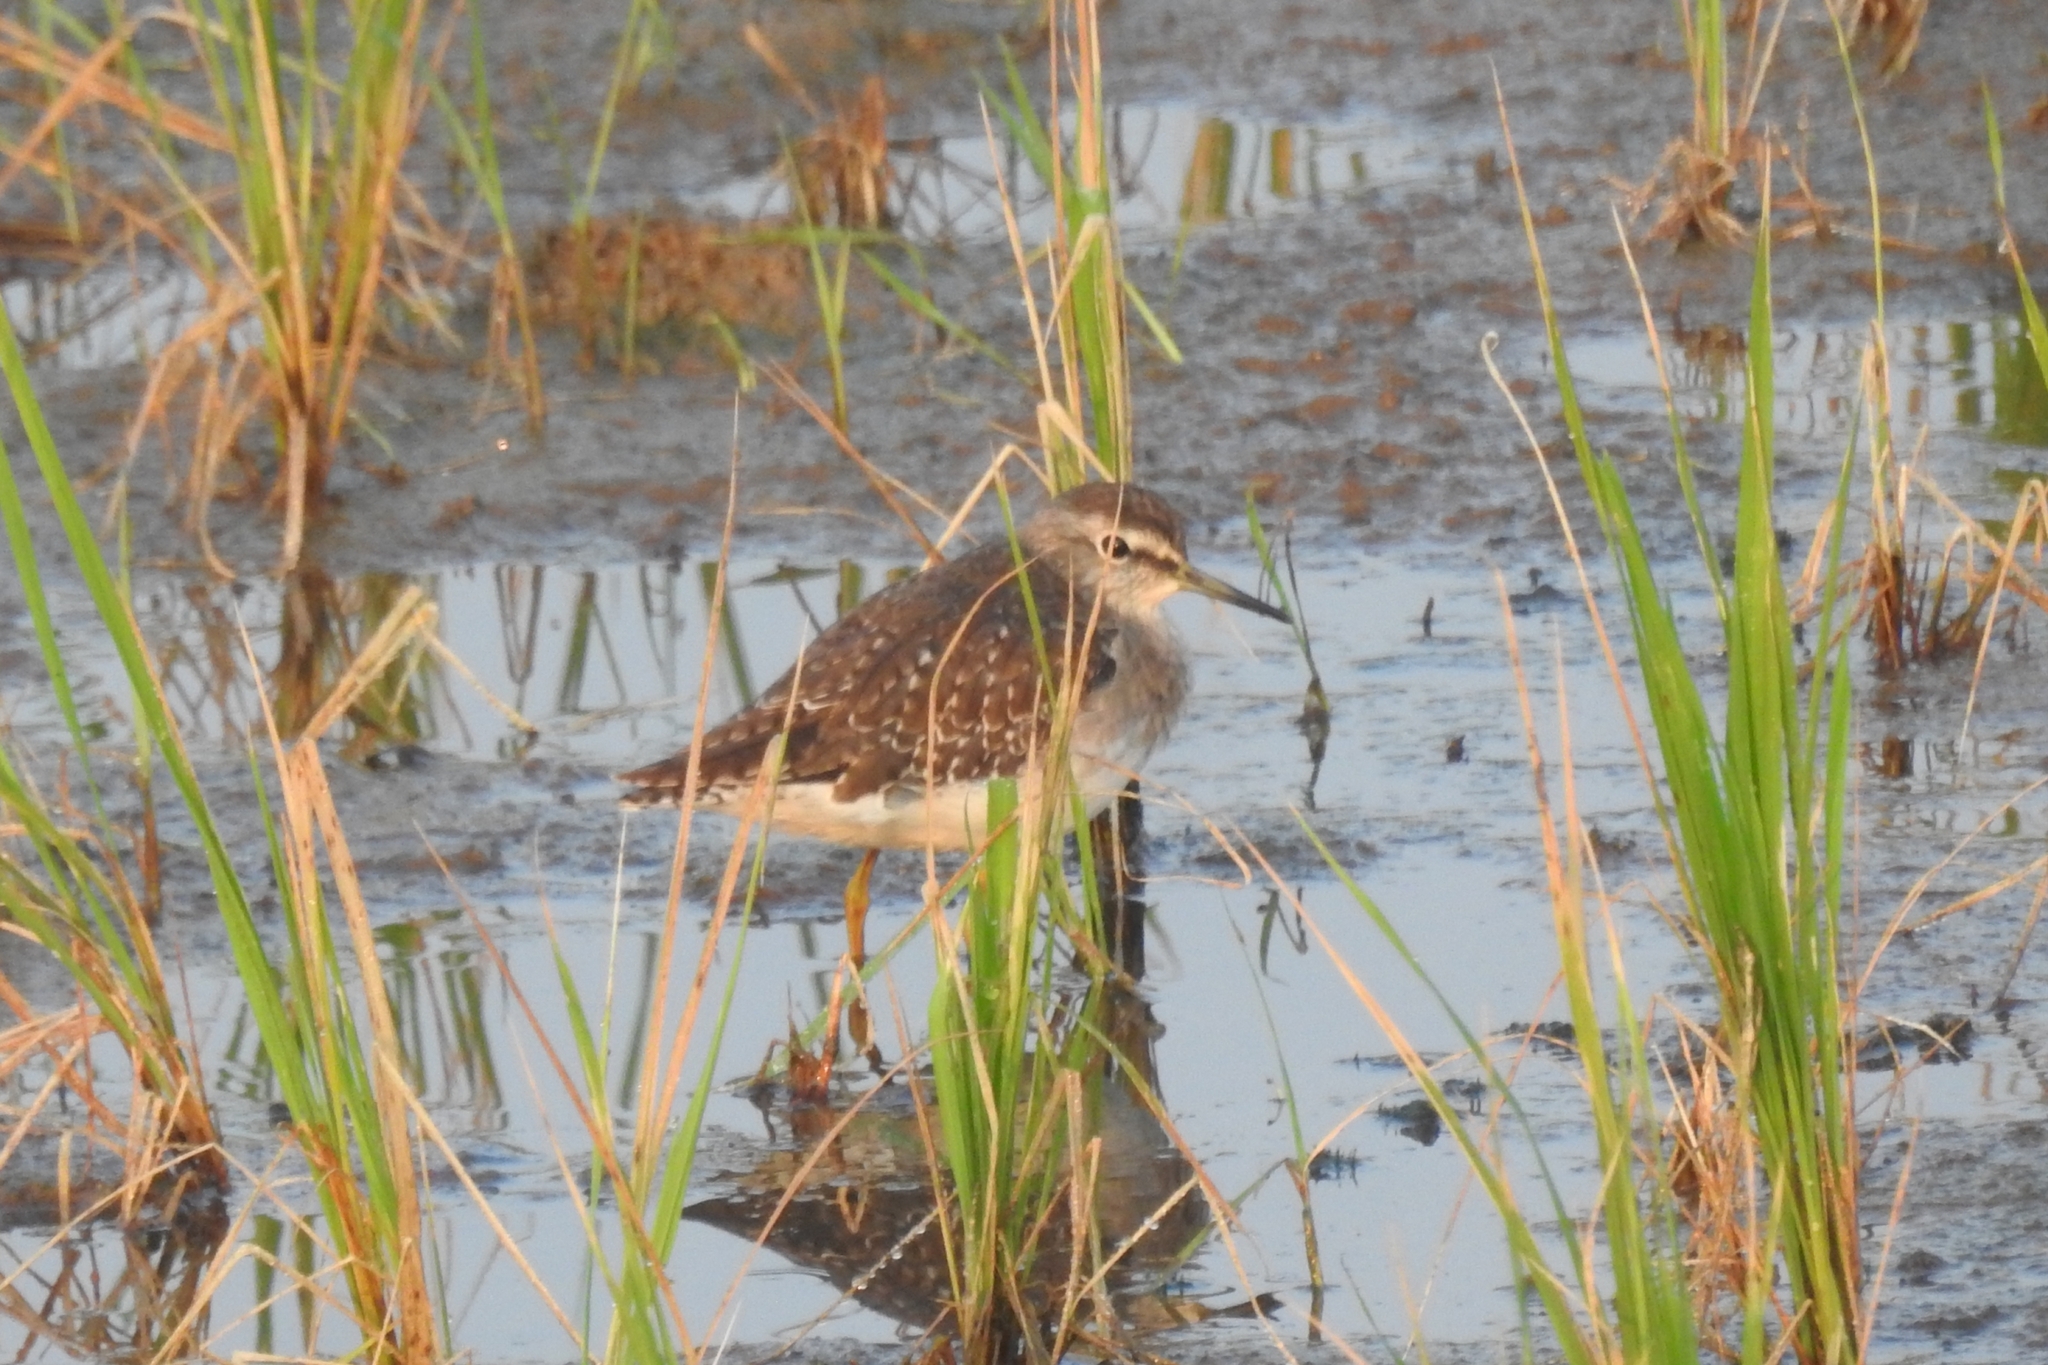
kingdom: Animalia
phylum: Chordata
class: Aves
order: Charadriiformes
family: Scolopacidae
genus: Tringa
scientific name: Tringa glareola
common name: Wood sandpiper
